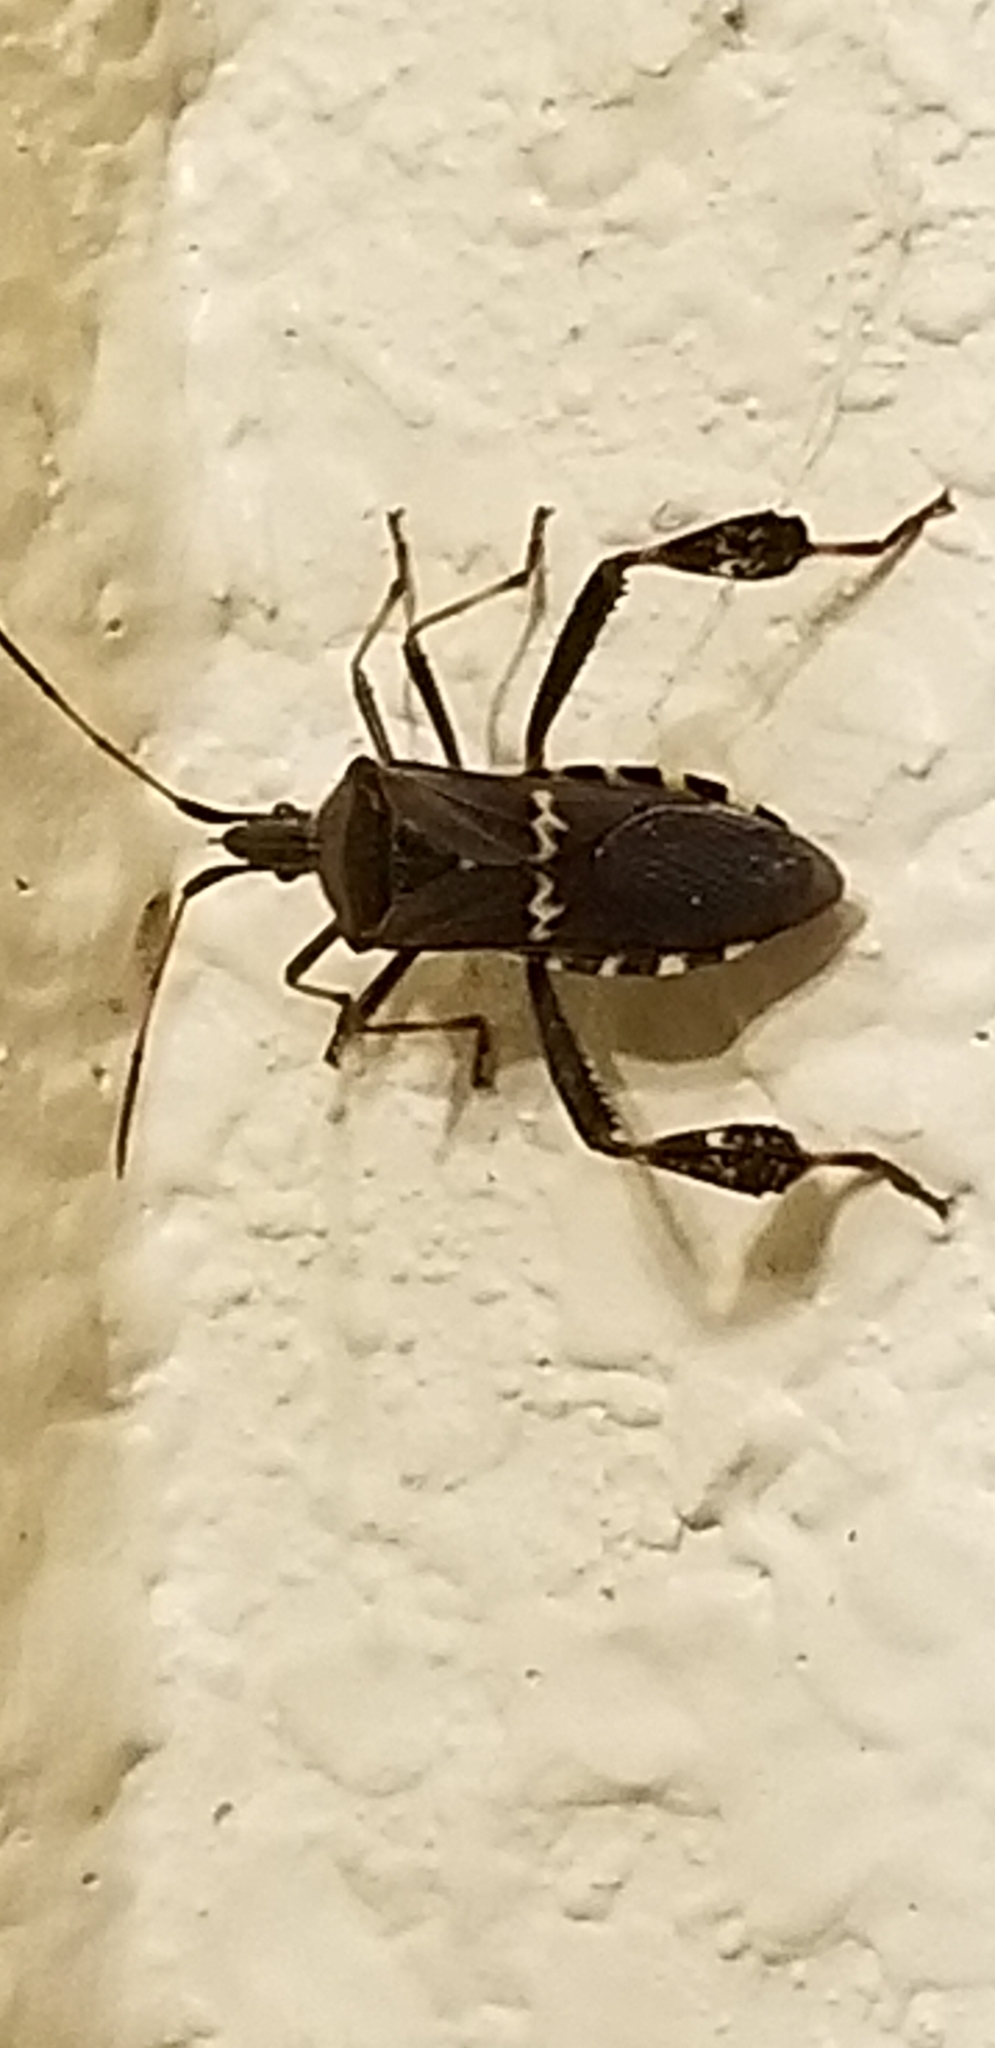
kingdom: Animalia
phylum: Arthropoda
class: Insecta
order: Hemiptera
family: Coreidae
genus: Leptoglossus
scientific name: Leptoglossus clypealis
